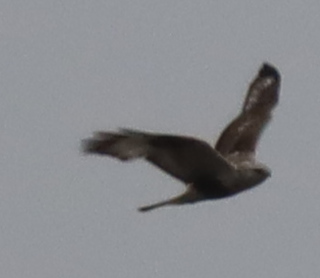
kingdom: Animalia
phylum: Chordata
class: Aves
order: Accipitriformes
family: Accipitridae
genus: Buteo
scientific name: Buteo lagopus
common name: Rough-legged buzzard
